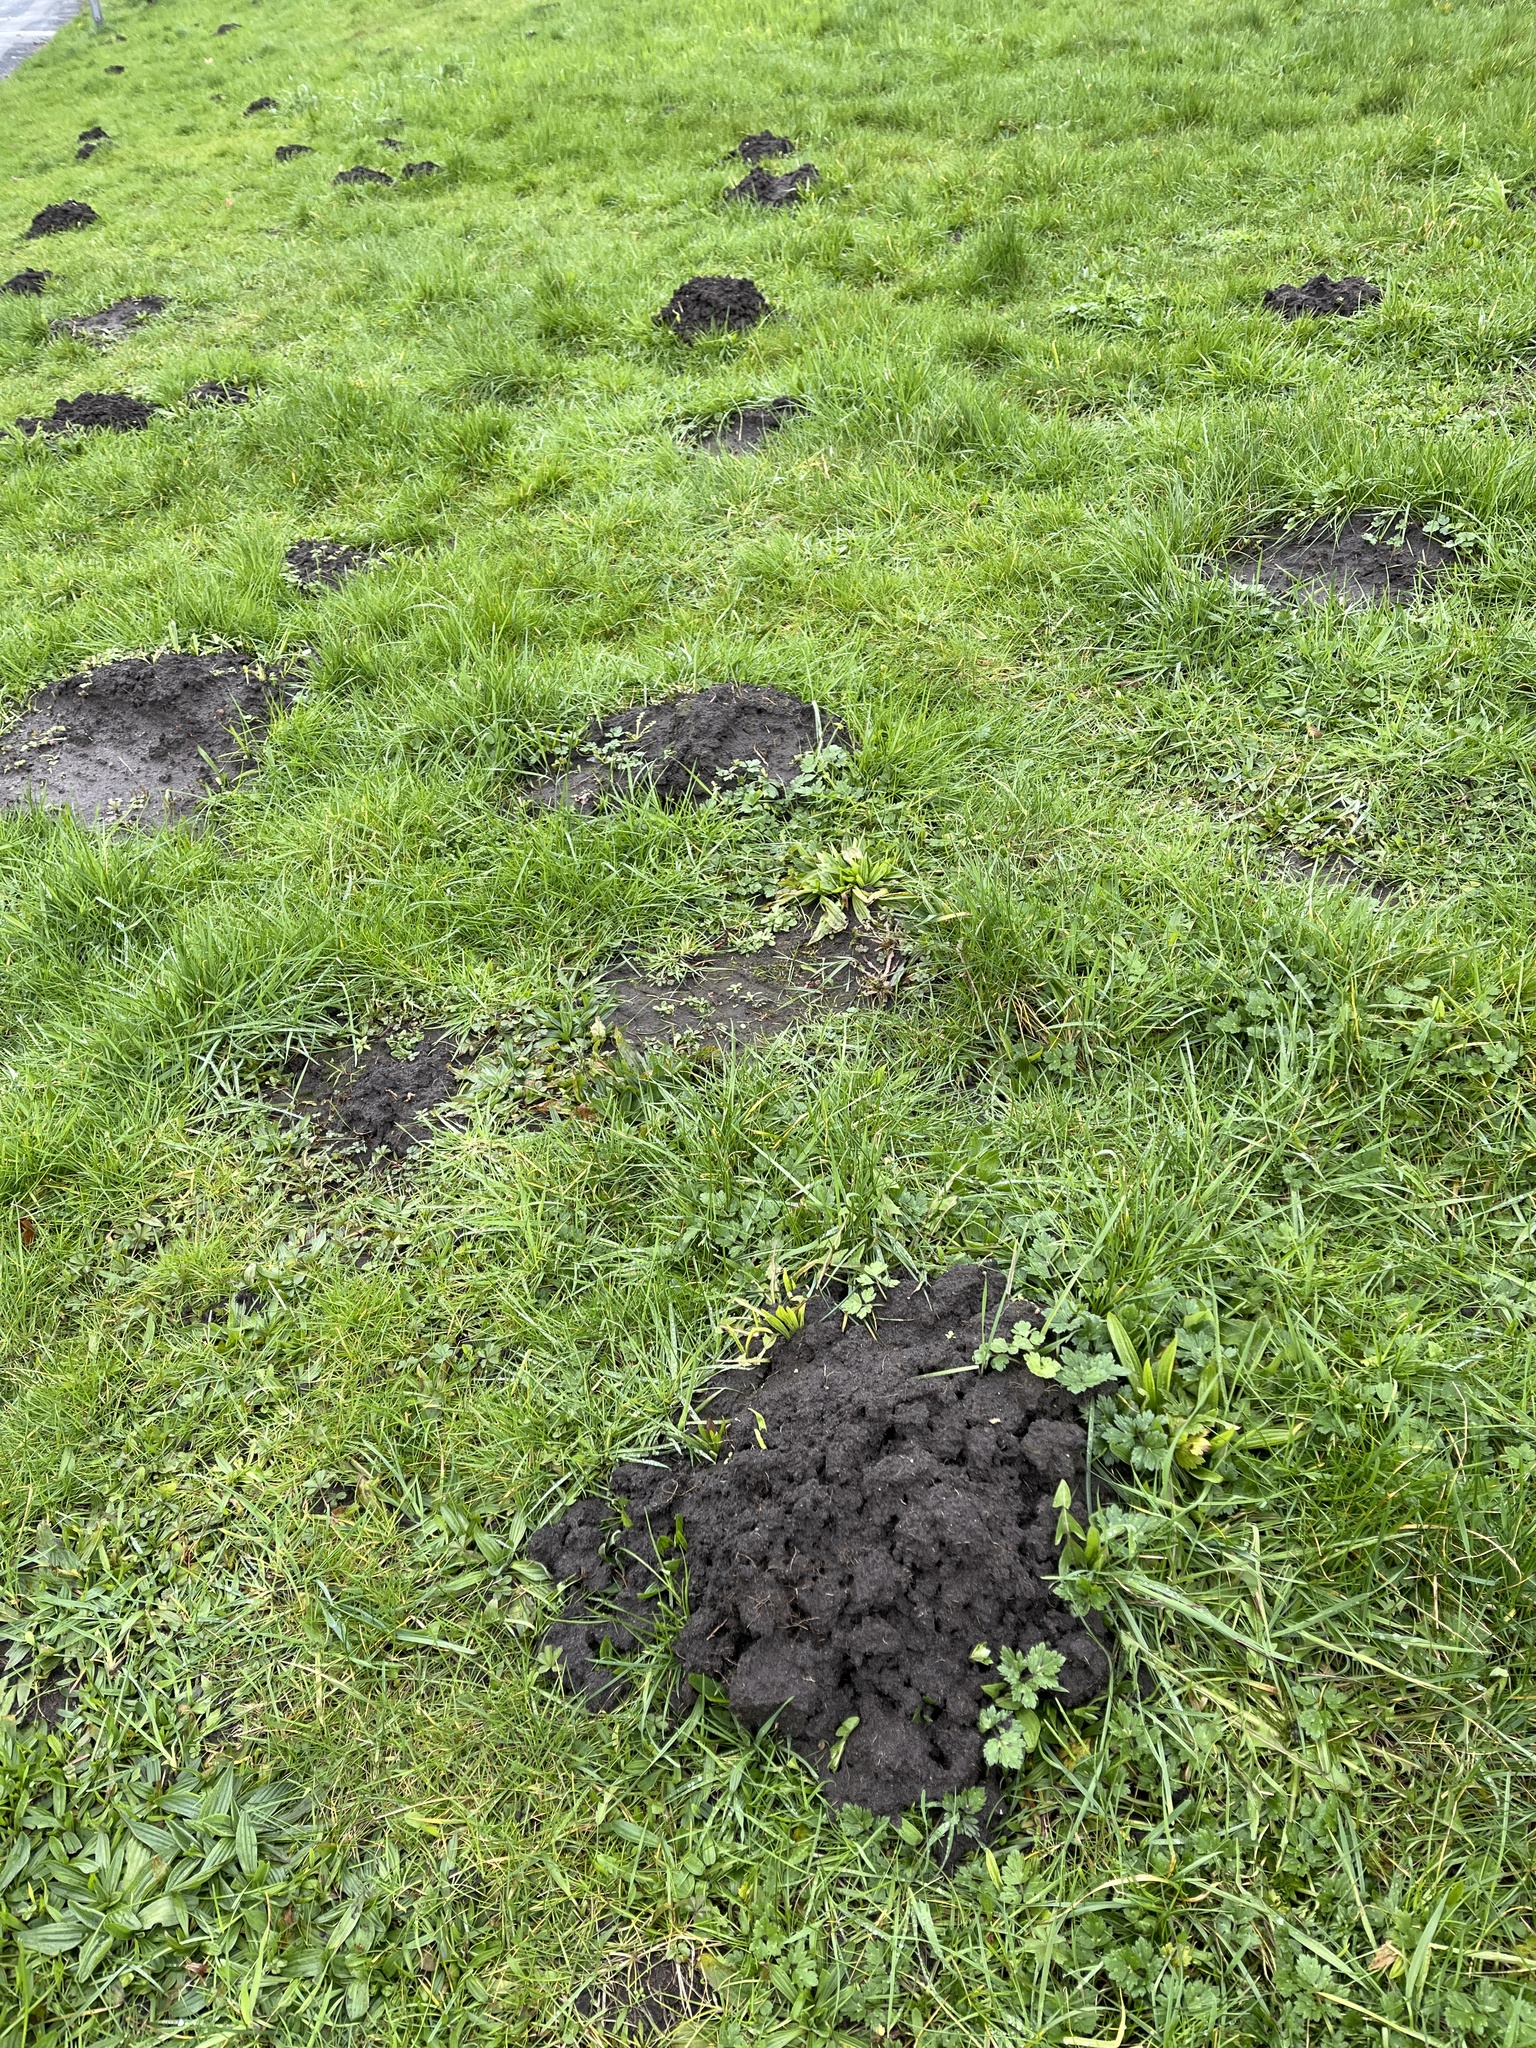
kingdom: Animalia
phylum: Chordata
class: Mammalia
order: Soricomorpha
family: Talpidae
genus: Talpa
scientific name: Talpa europaea
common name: European mole
